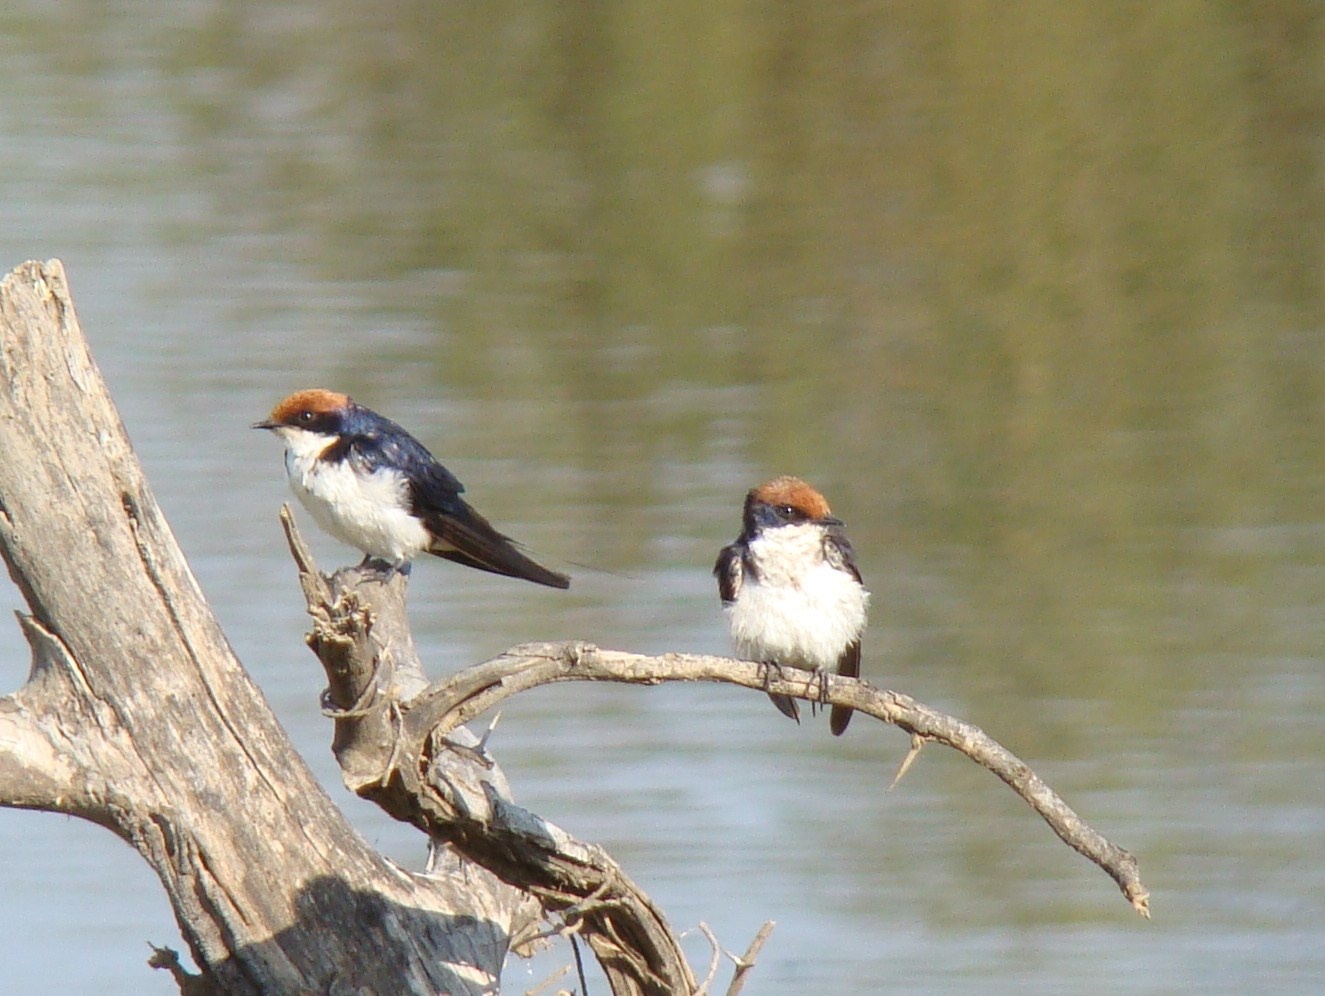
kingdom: Animalia
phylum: Chordata
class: Aves
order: Passeriformes
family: Hirundinidae
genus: Hirundo
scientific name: Hirundo smithii
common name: Wire-tailed swallow
